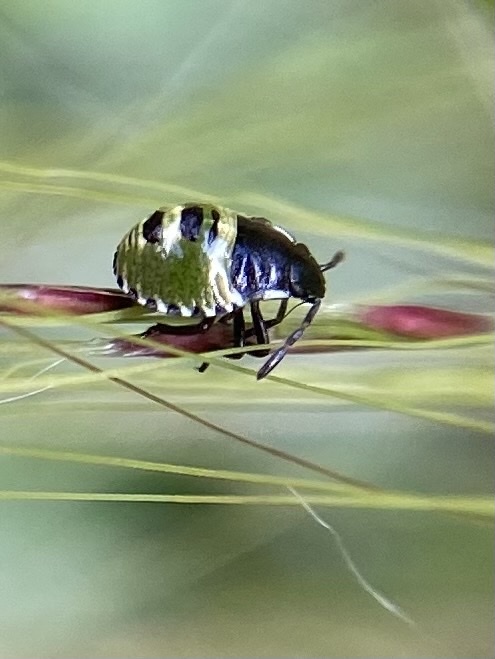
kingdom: Animalia
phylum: Arthropoda
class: Insecta
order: Hemiptera
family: Pentatomidae
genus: Palomena
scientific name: Palomena prasina
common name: Green shieldbug
